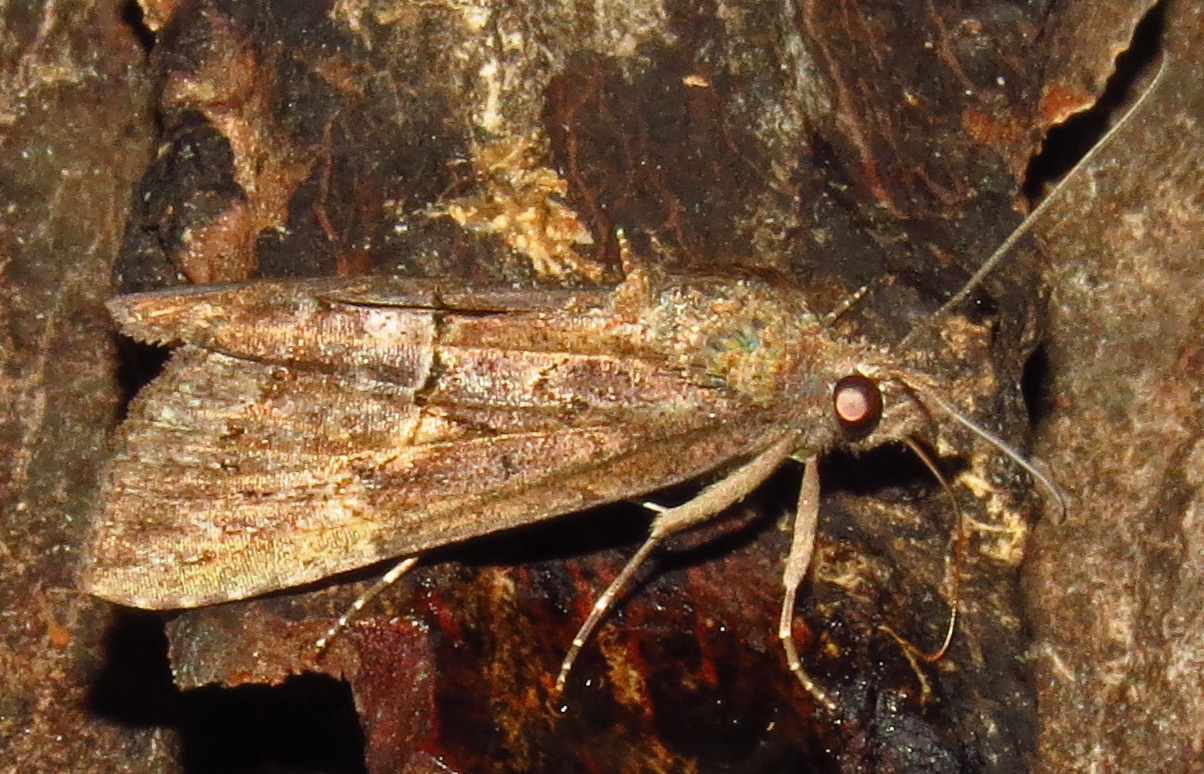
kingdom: Animalia
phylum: Arthropoda
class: Insecta
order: Lepidoptera
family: Erebidae
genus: Hypena
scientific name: Hypena scabra
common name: Green cloverworm
